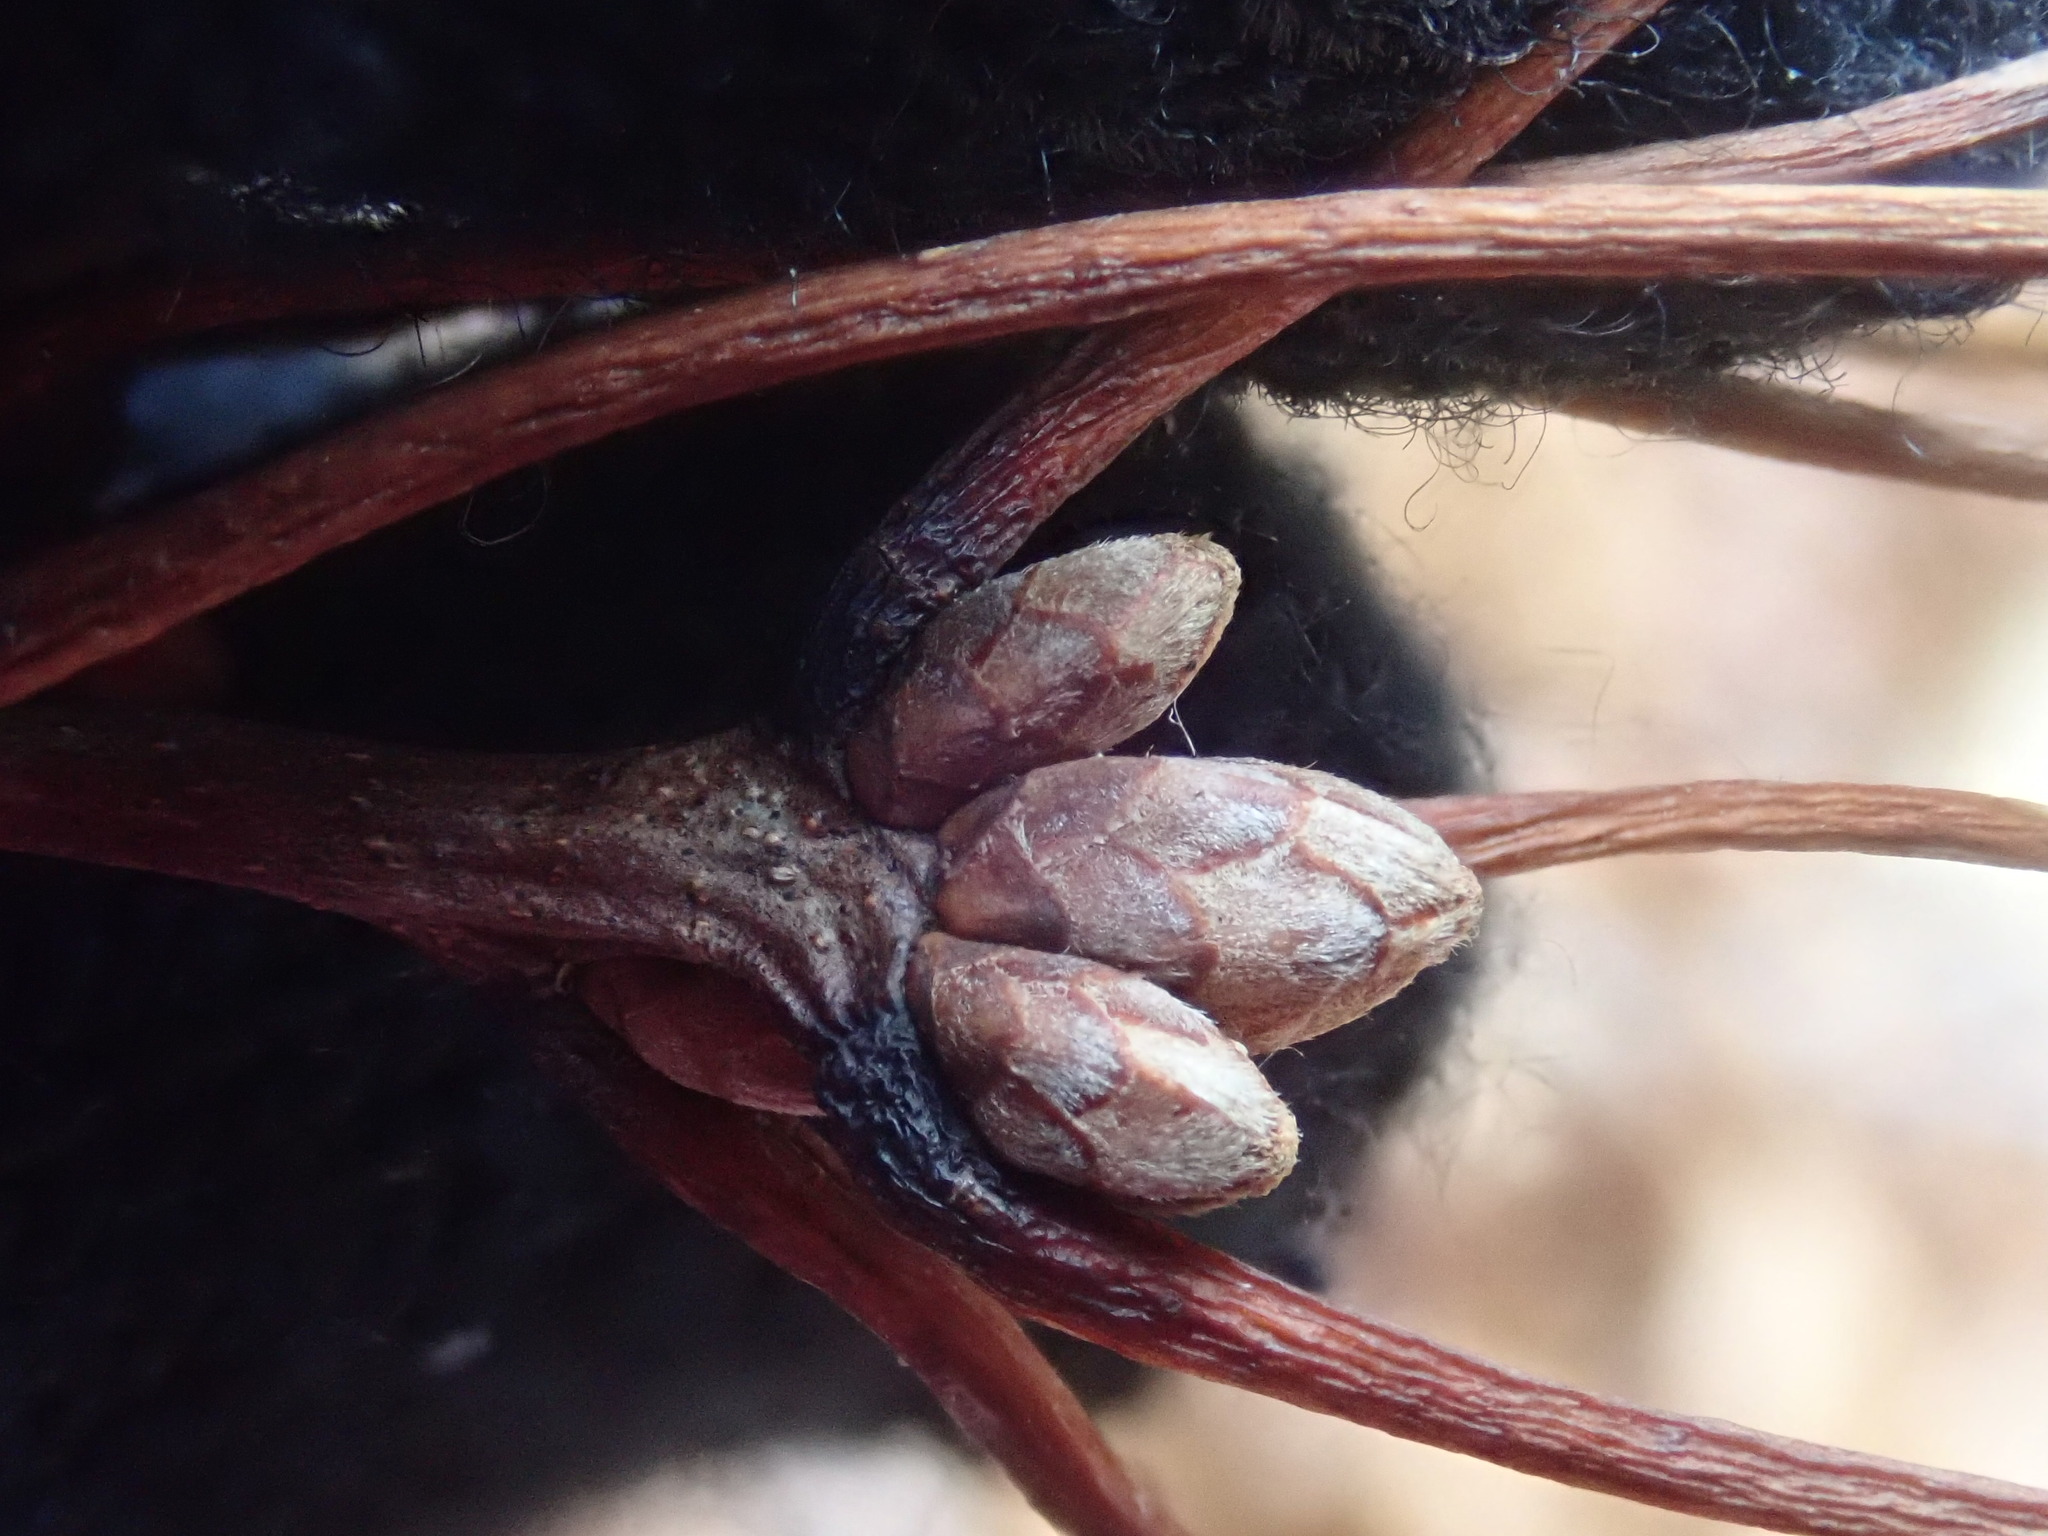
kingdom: Plantae
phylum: Tracheophyta
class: Magnoliopsida
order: Fagales
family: Fagaceae
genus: Quercus
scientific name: Quercus coccinea
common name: Scarlet oak
